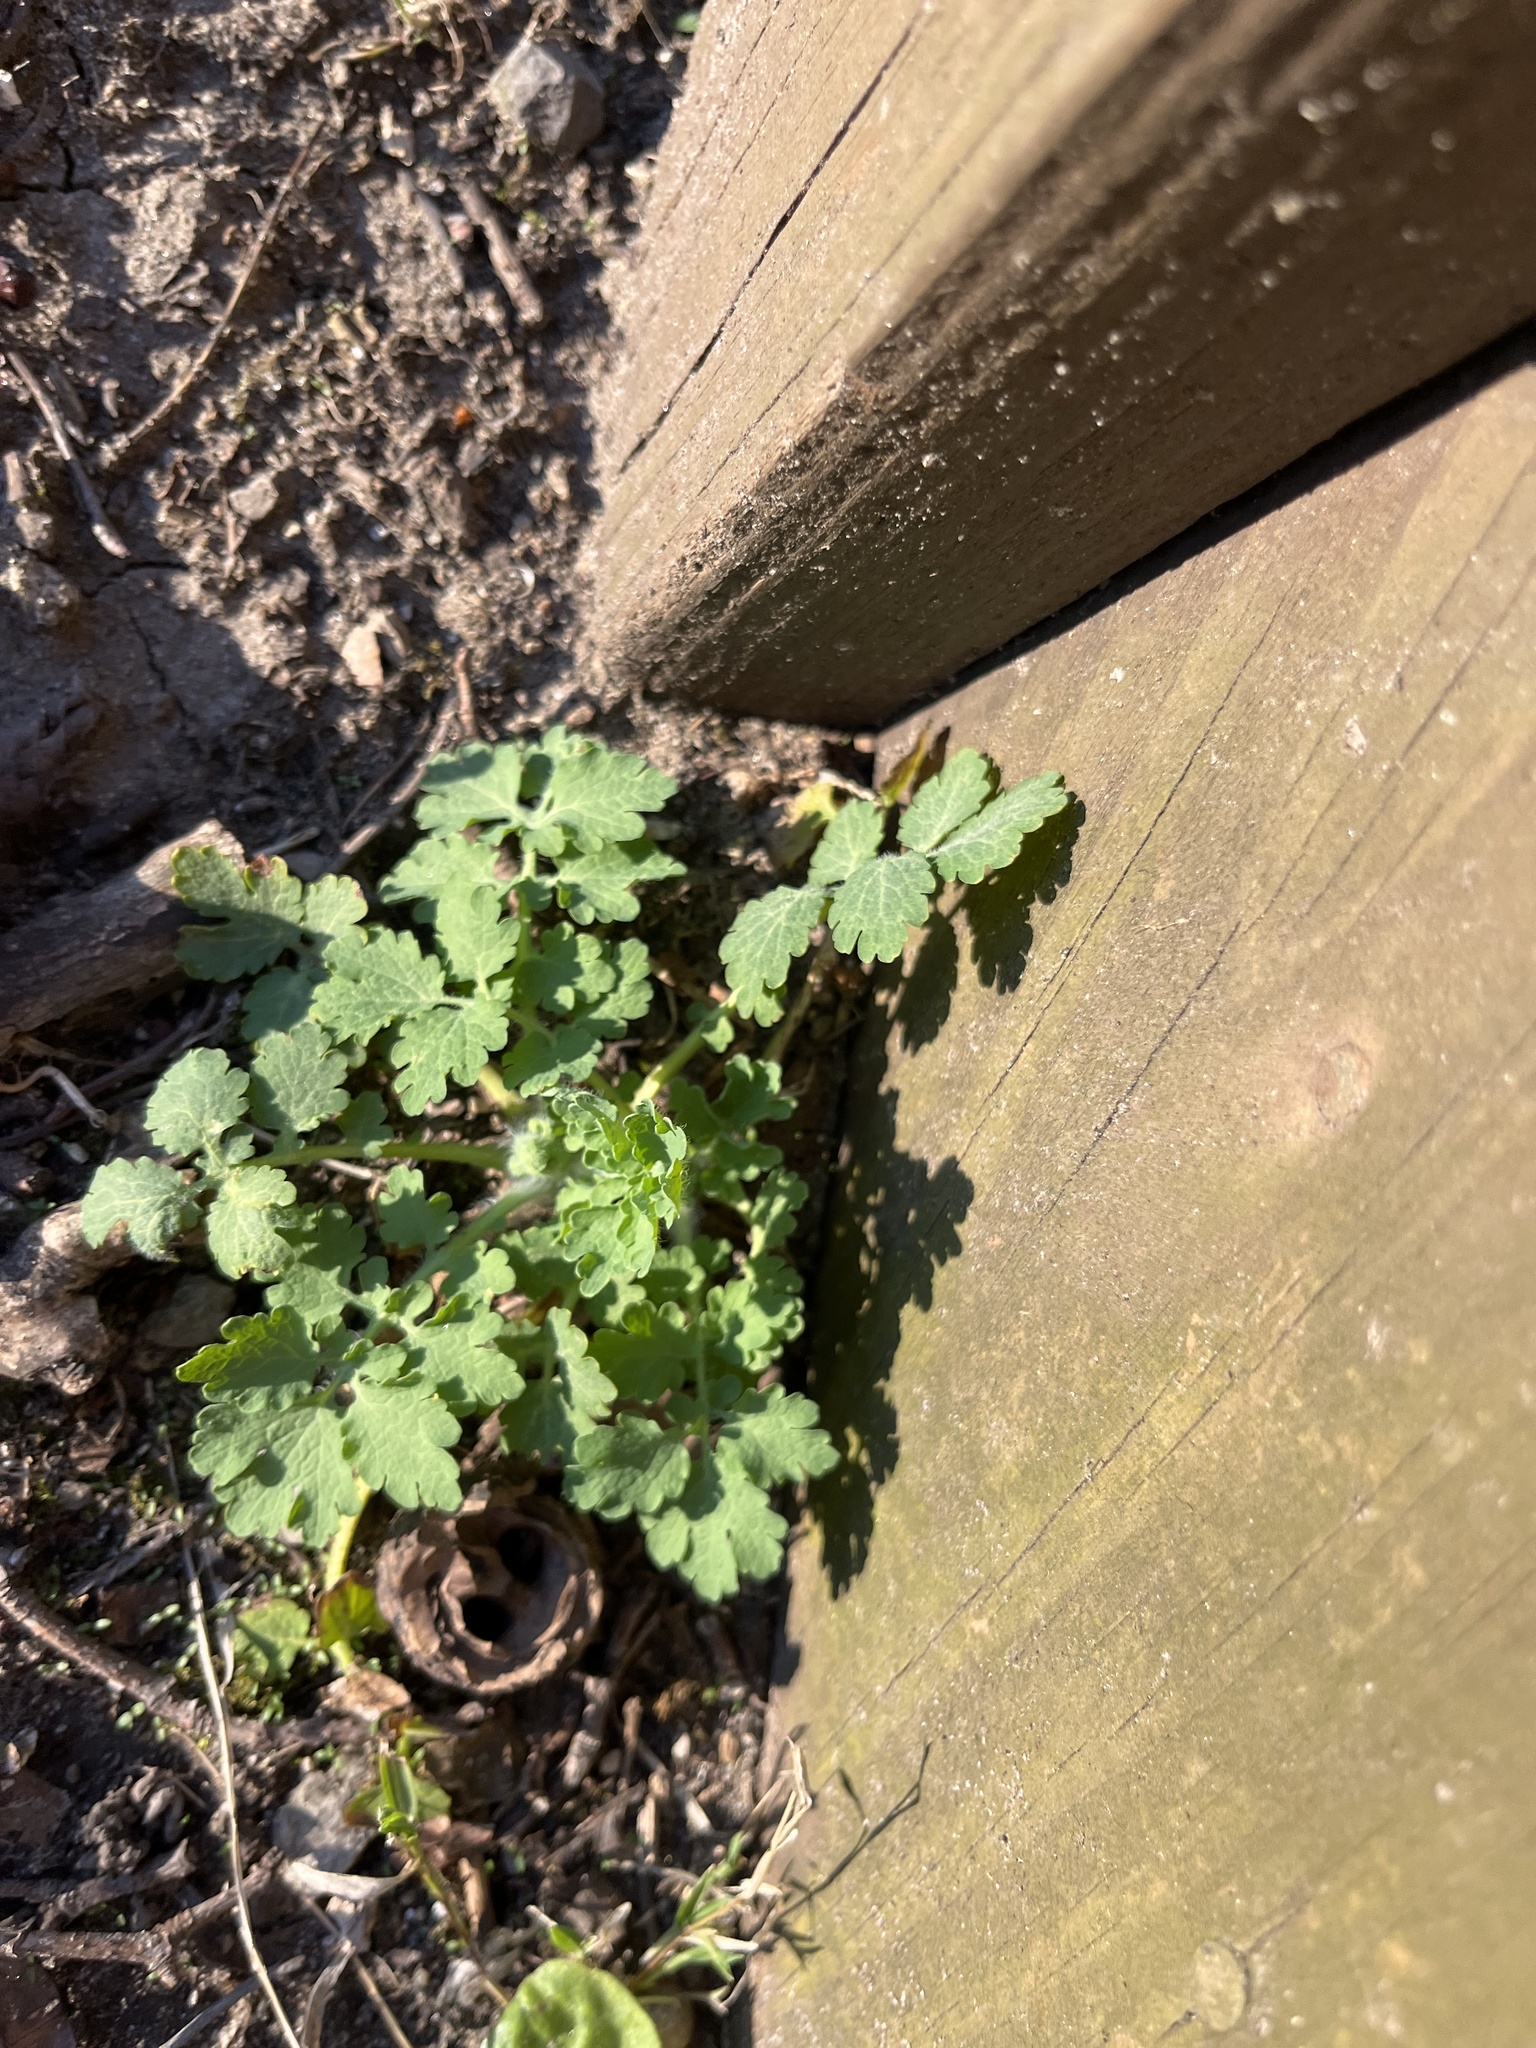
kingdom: Plantae
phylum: Tracheophyta
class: Magnoliopsida
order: Ranunculales
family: Papaveraceae
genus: Chelidonium
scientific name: Chelidonium majus
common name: Greater celandine
